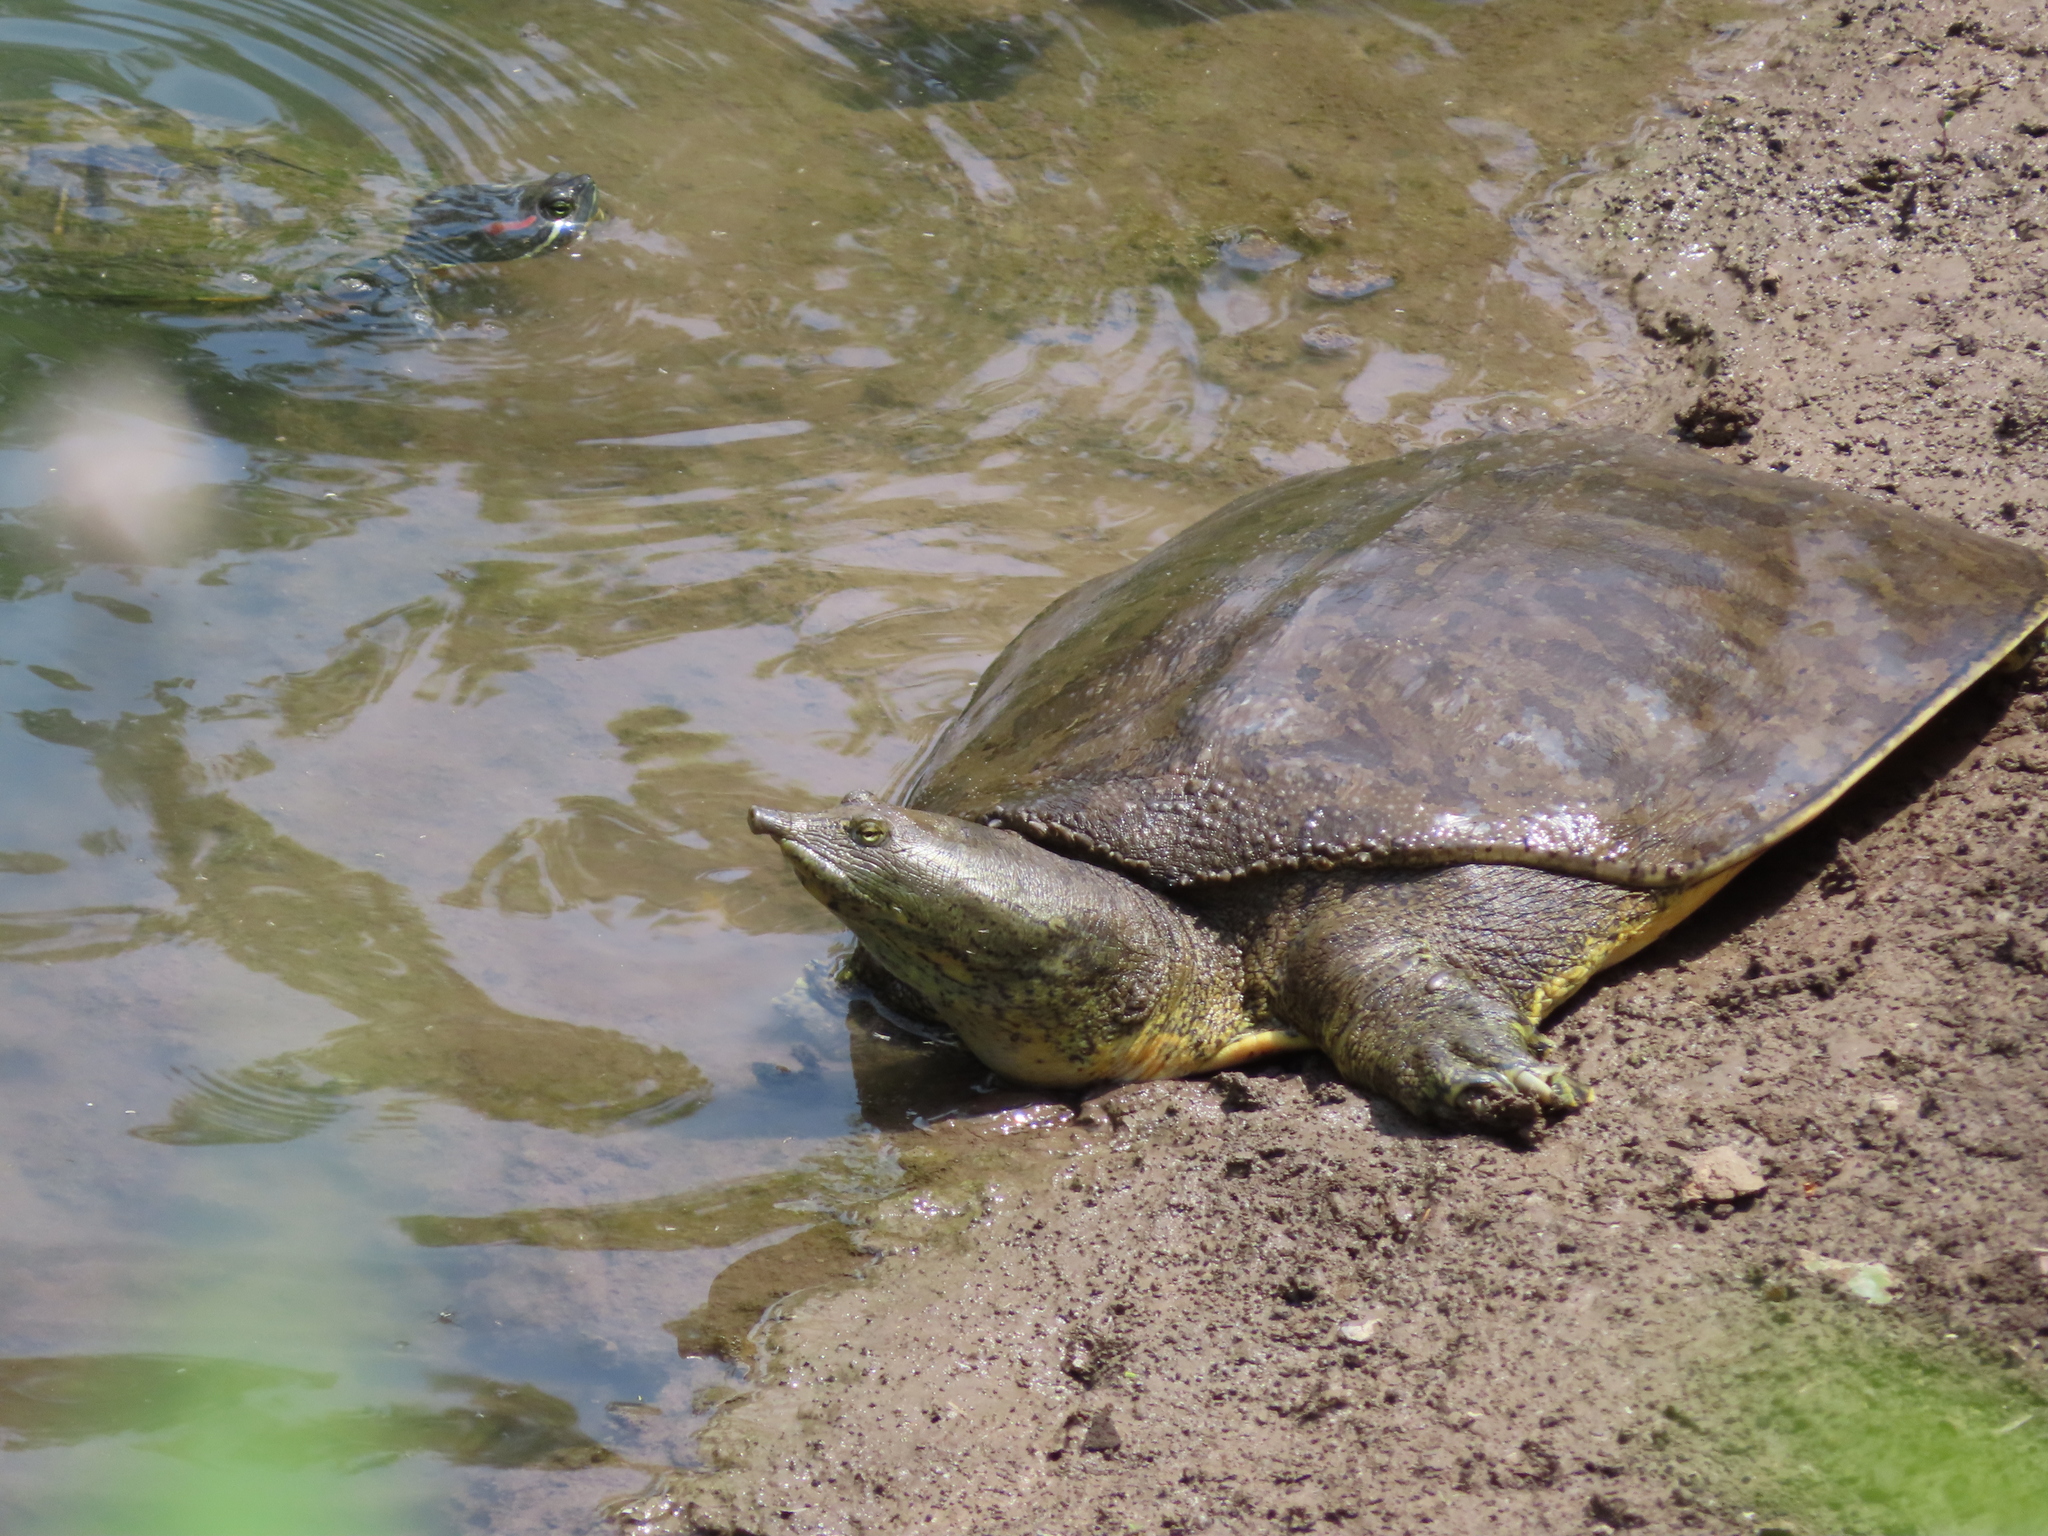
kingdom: Animalia
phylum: Chordata
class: Testudines
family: Trionychidae
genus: Apalone
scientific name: Apalone spinifera
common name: Spiny softshell turtle
